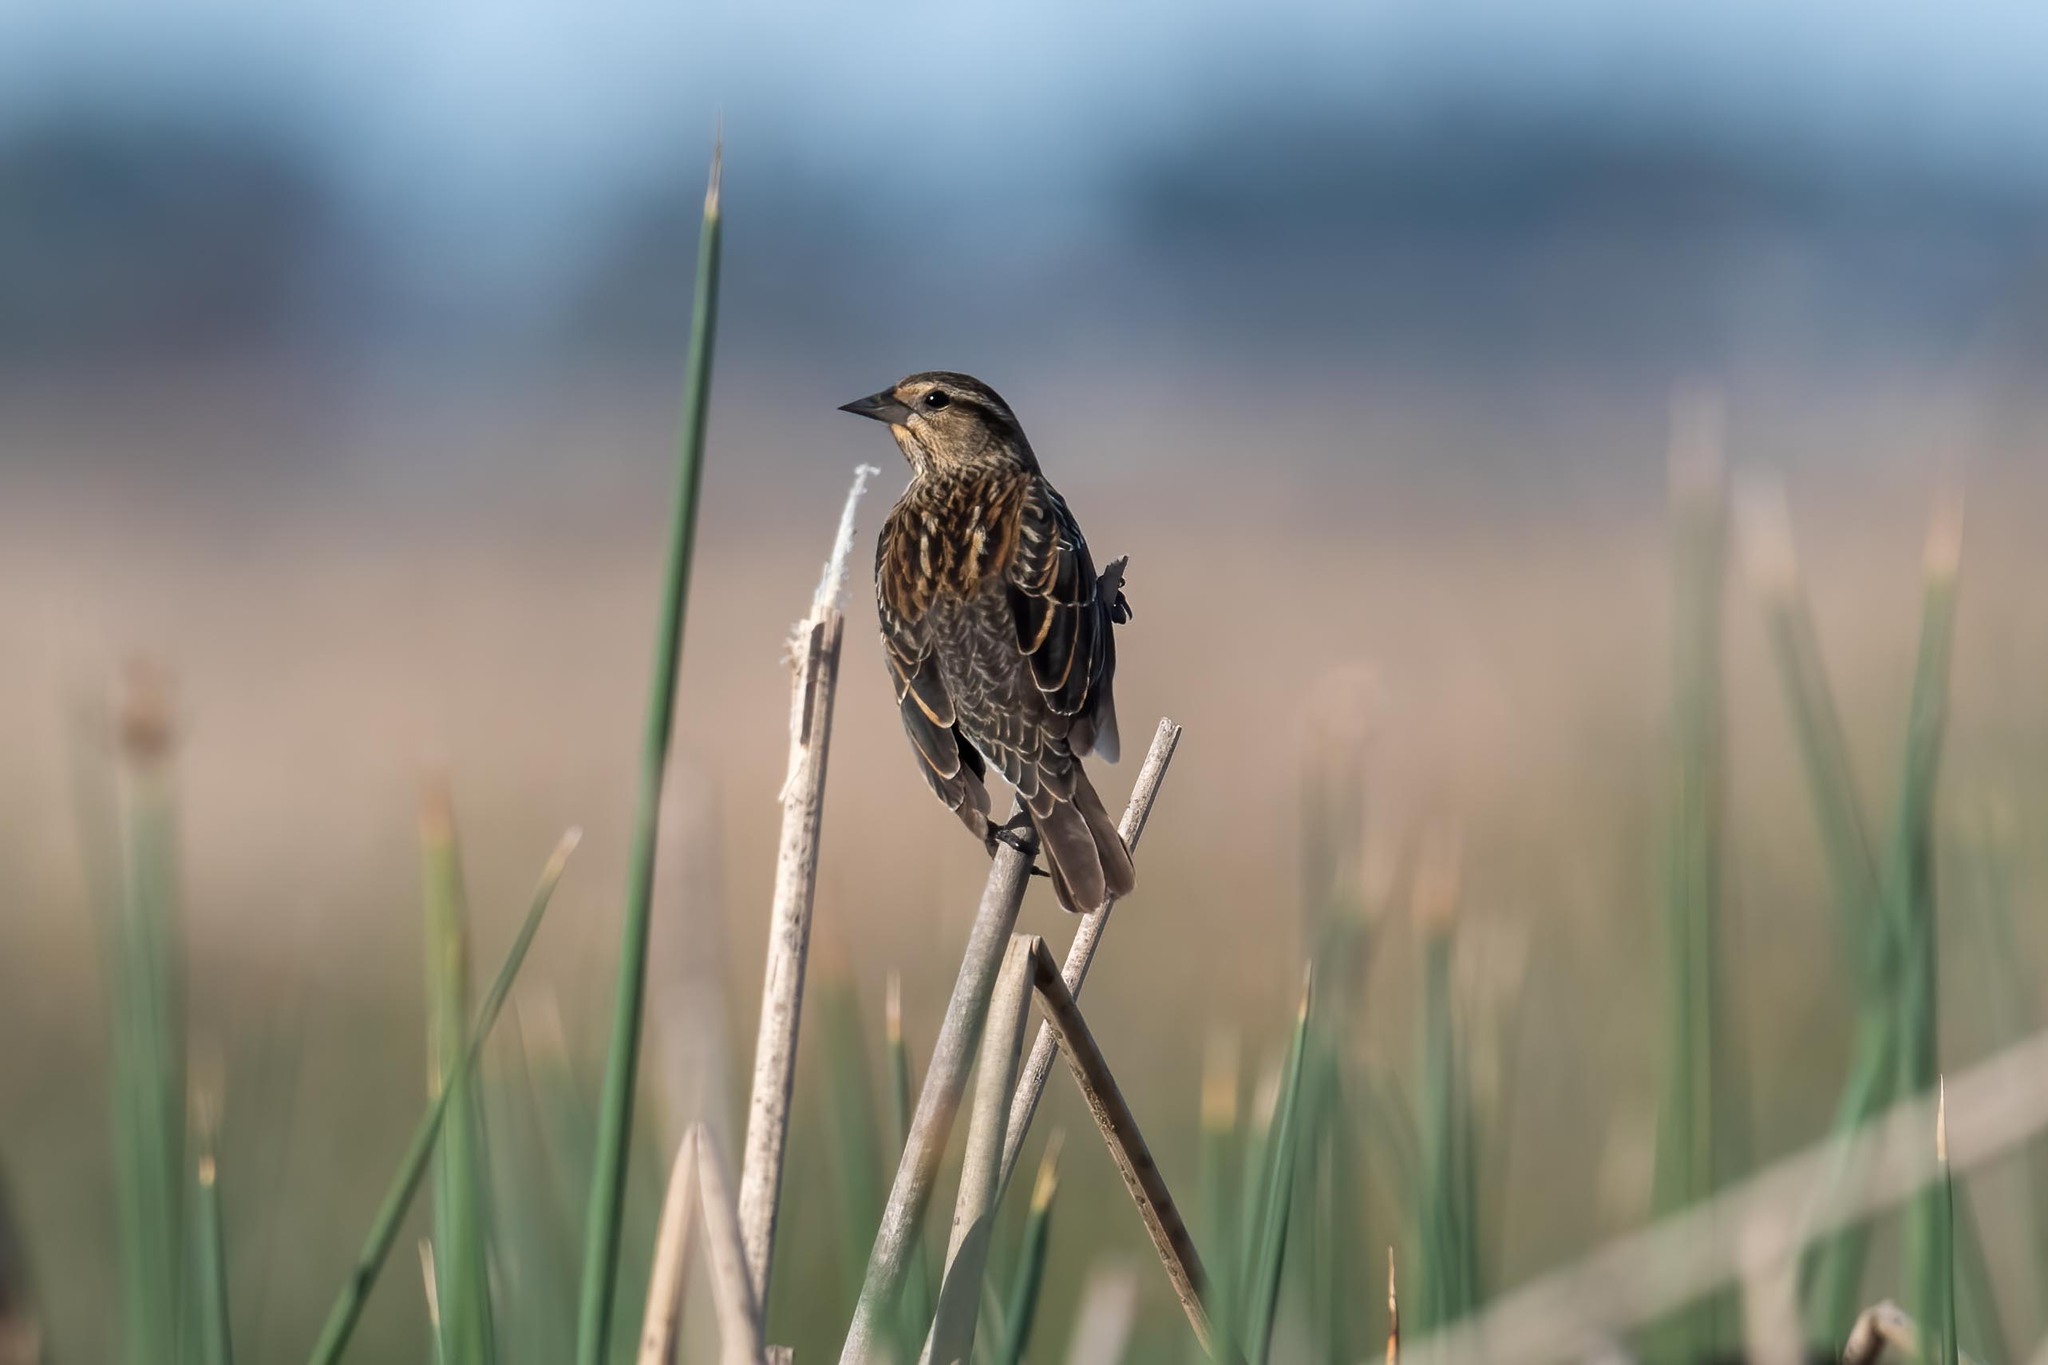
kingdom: Animalia
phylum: Chordata
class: Aves
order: Passeriformes
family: Icteridae
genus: Agelaius
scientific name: Agelaius phoeniceus
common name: Red-winged blackbird
